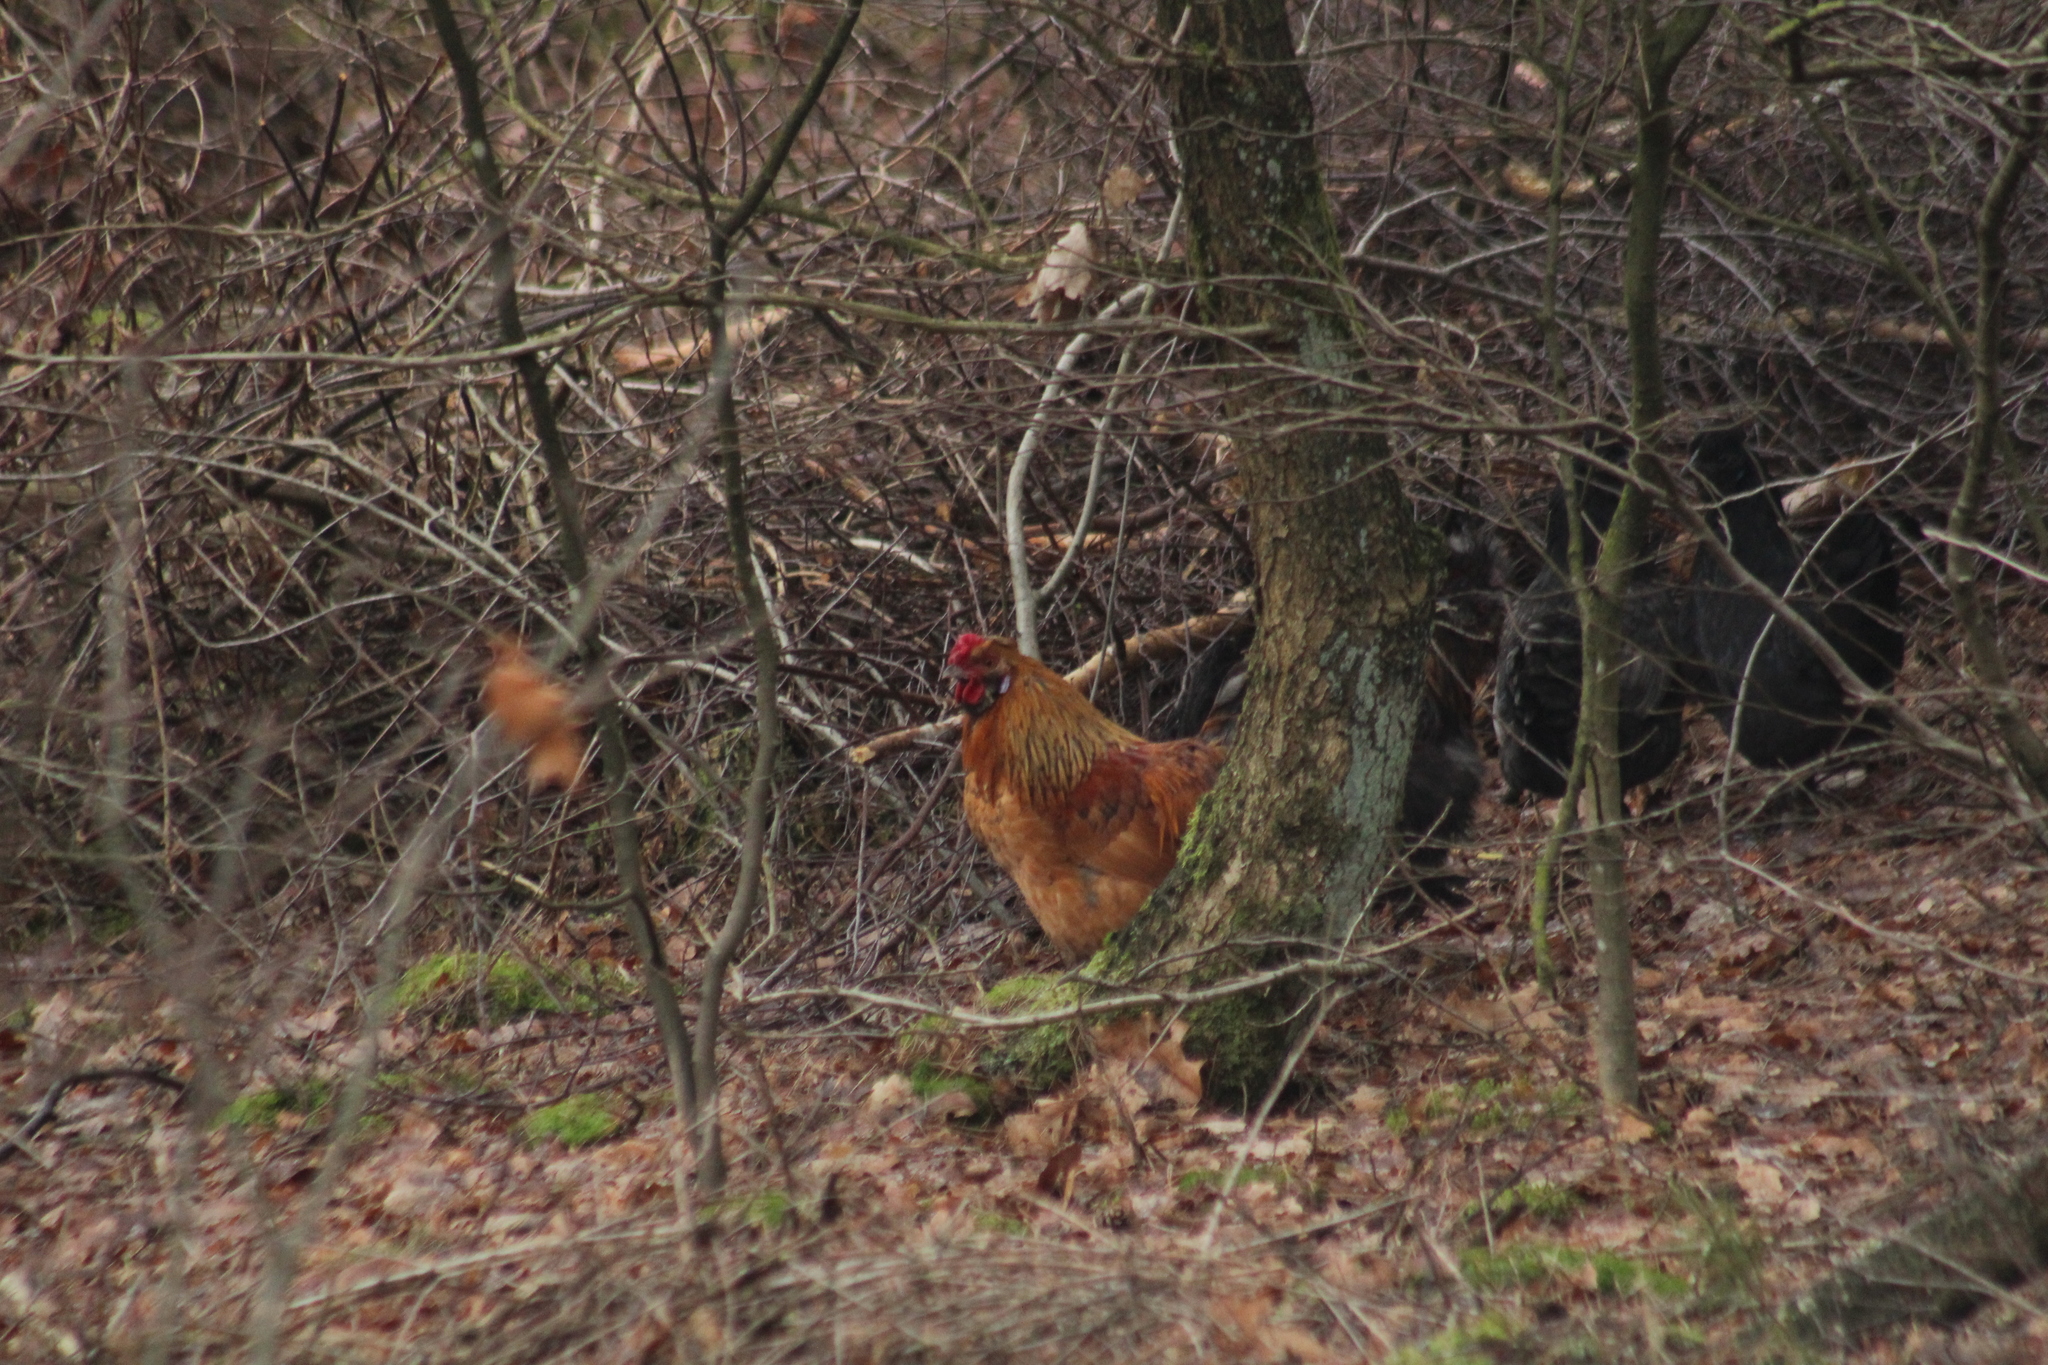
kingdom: Animalia
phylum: Chordata
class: Aves
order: Galliformes
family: Phasianidae
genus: Gallus
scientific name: Gallus gallus
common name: Red junglefowl
